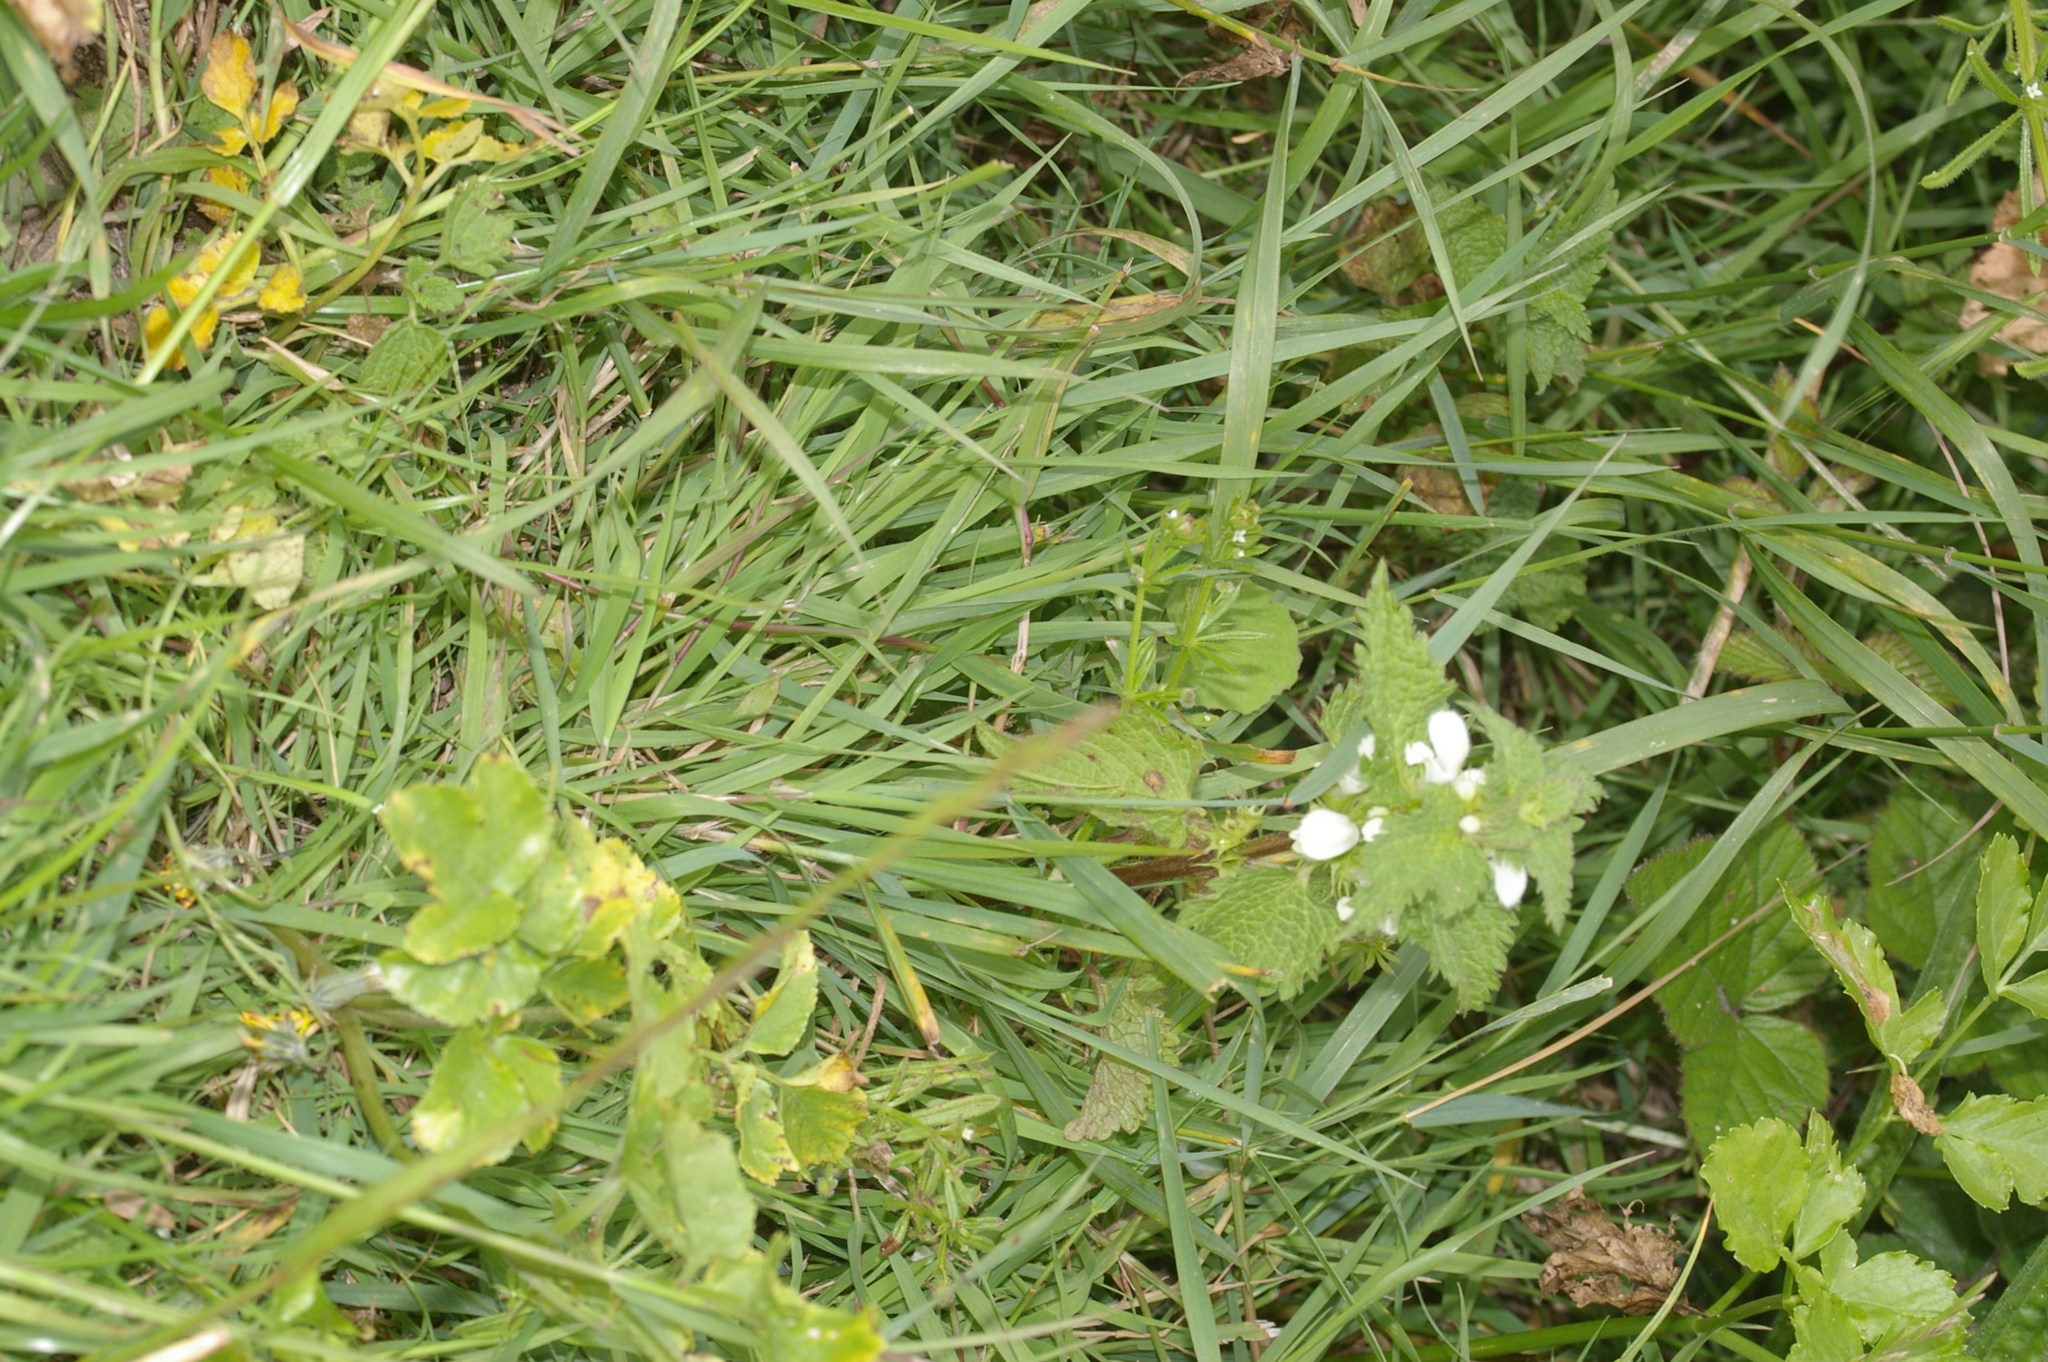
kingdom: Plantae
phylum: Tracheophyta
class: Magnoliopsida
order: Lamiales
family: Lamiaceae
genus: Lamium
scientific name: Lamium album
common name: White dead-nettle
